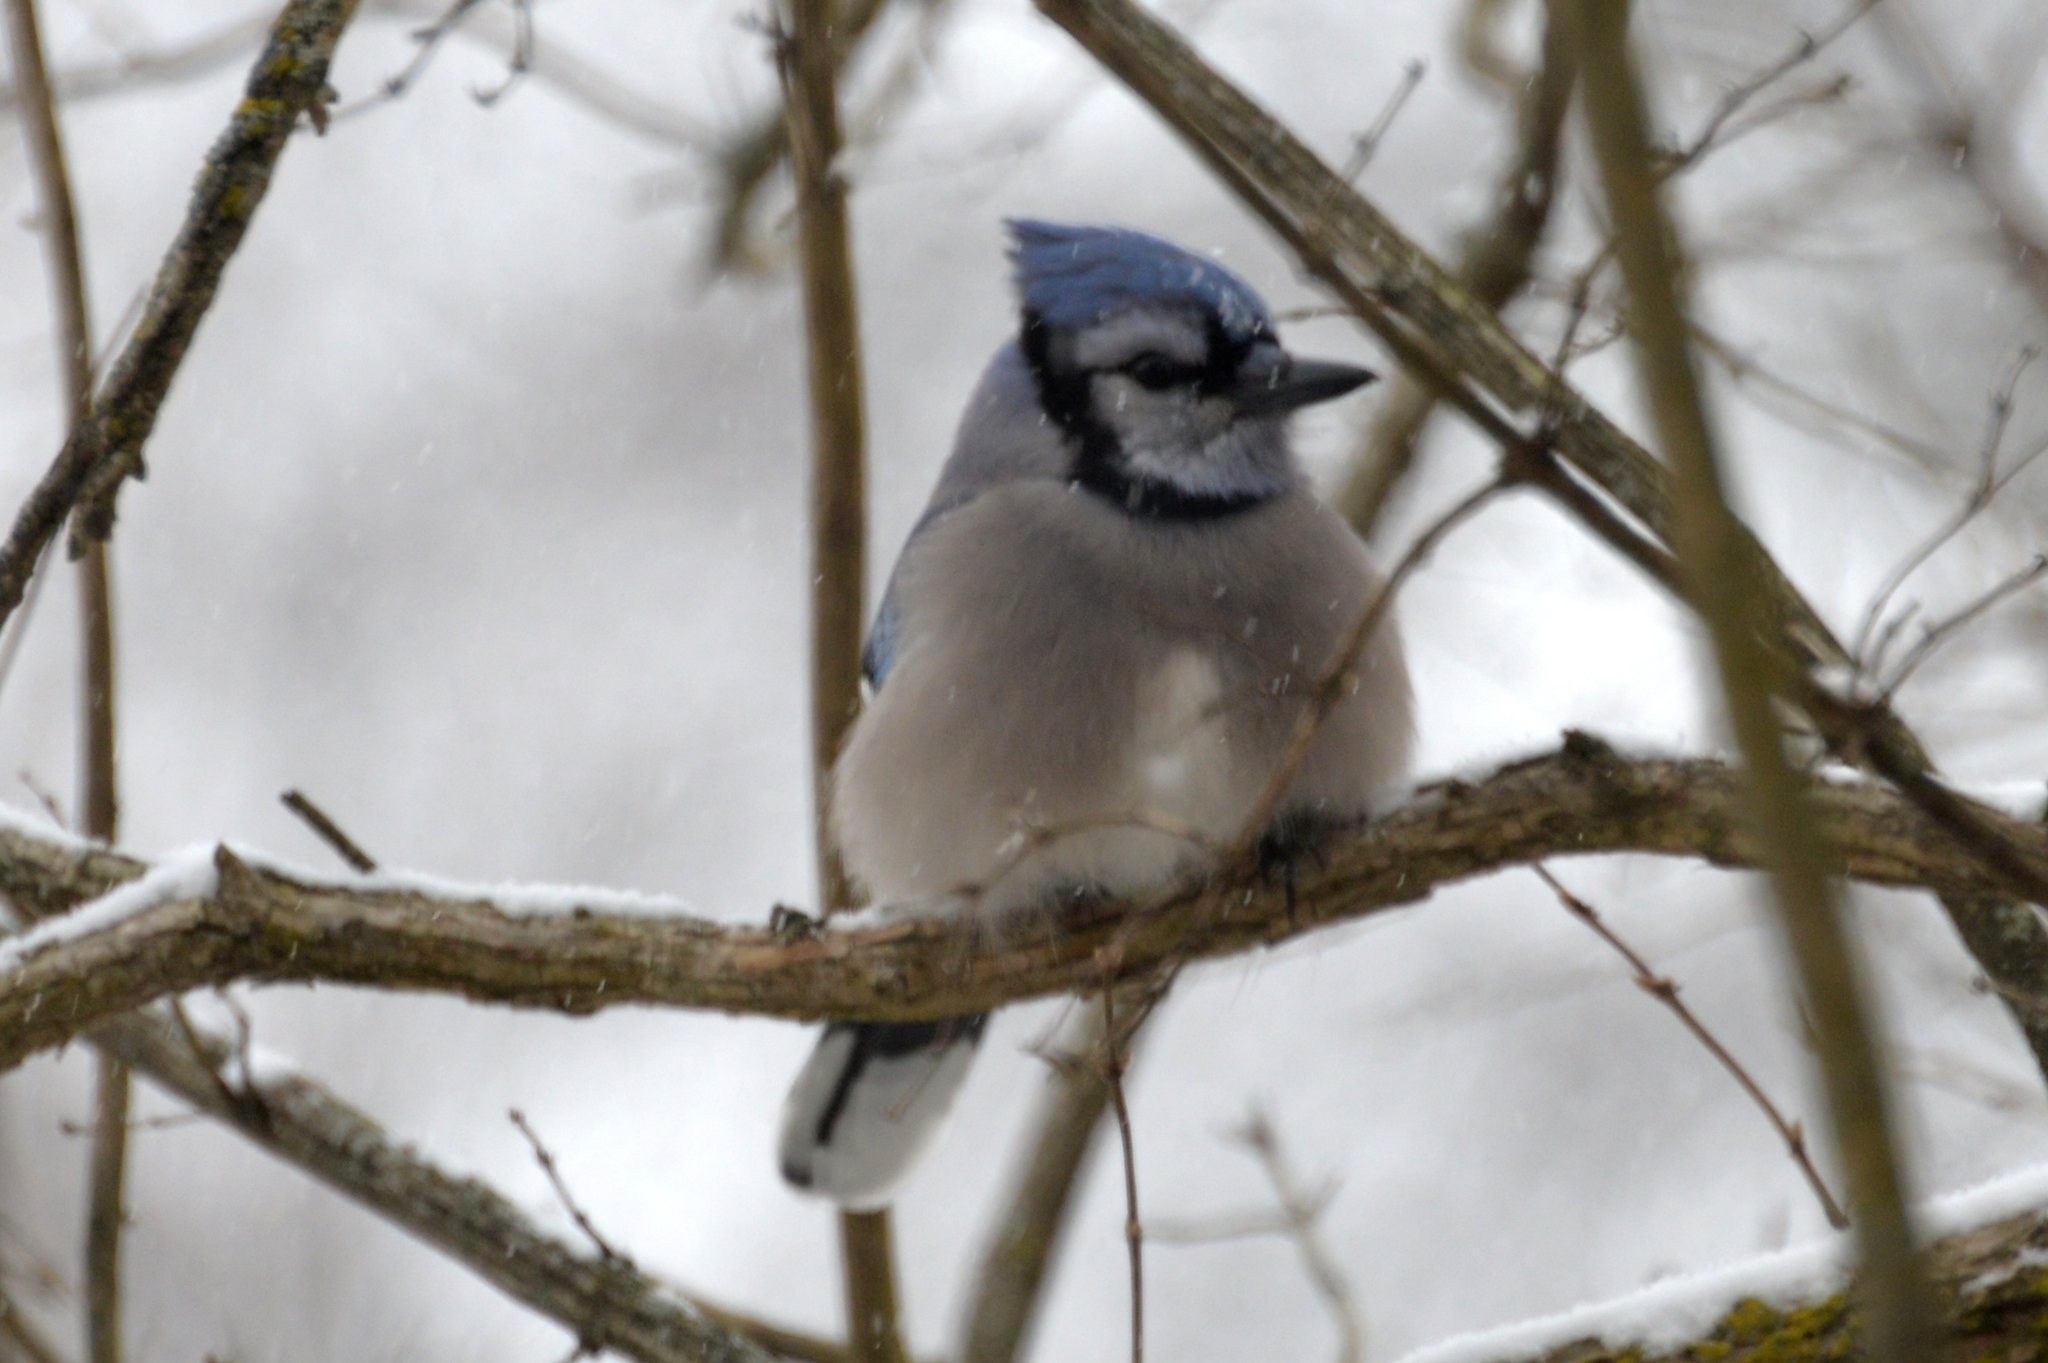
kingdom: Animalia
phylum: Chordata
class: Aves
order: Passeriformes
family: Corvidae
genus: Cyanocitta
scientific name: Cyanocitta cristata
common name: Blue jay
